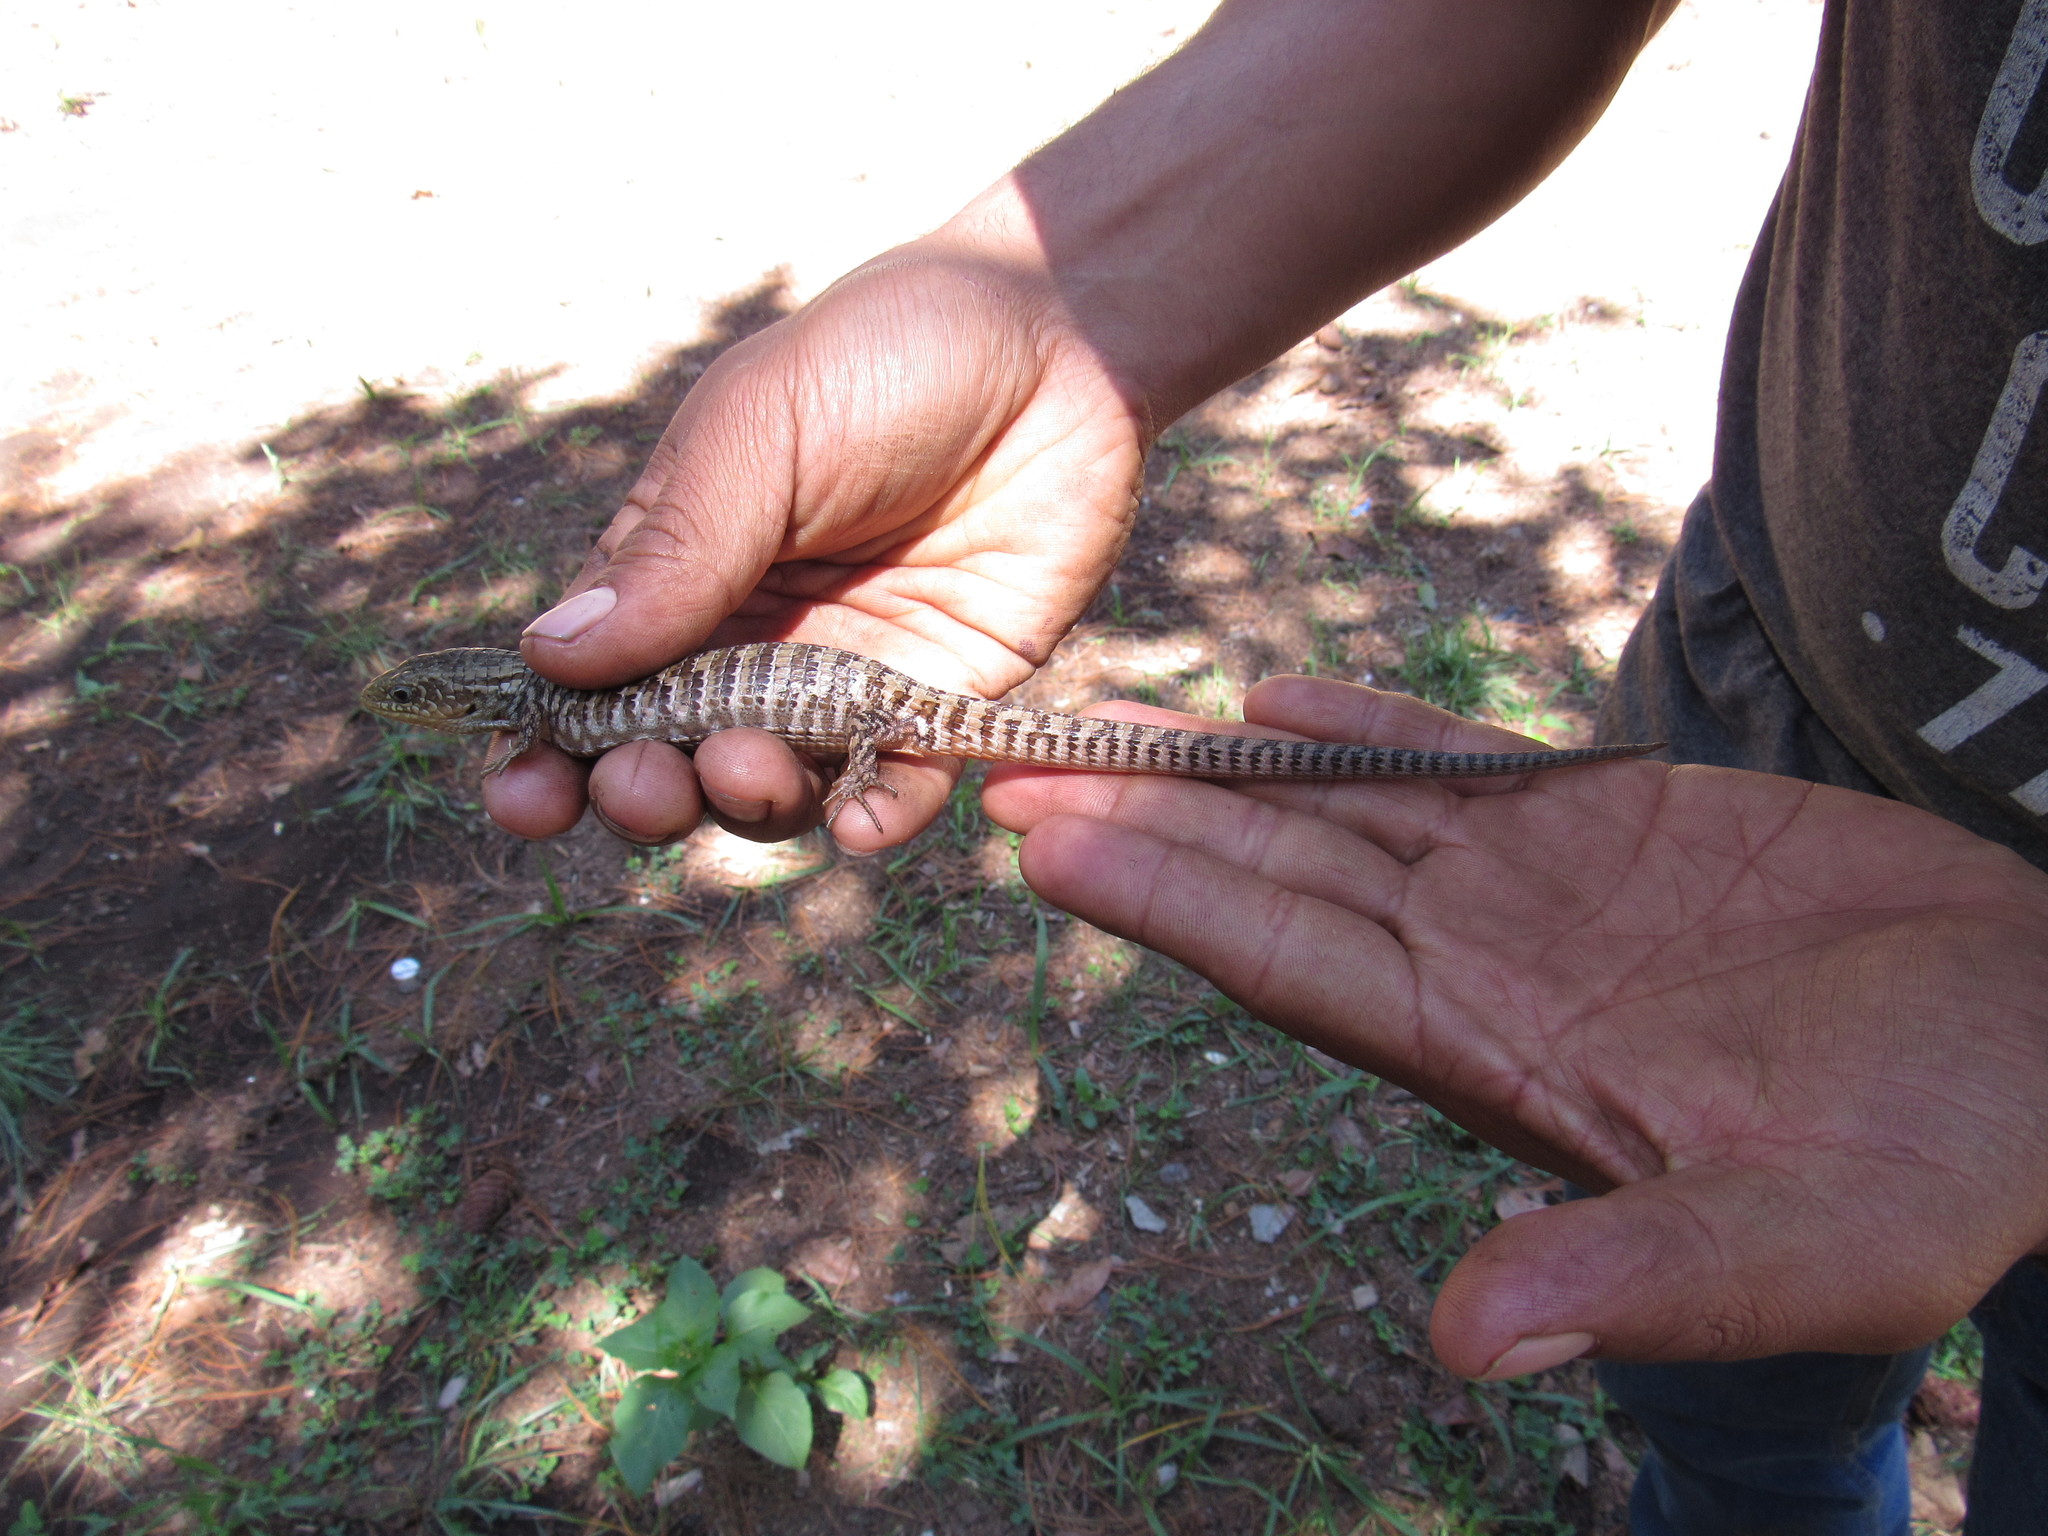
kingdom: Animalia
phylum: Chordata
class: Squamata
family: Anguidae
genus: Barisia
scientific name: Barisia ciliaris
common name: Imbricate alligator lizard
